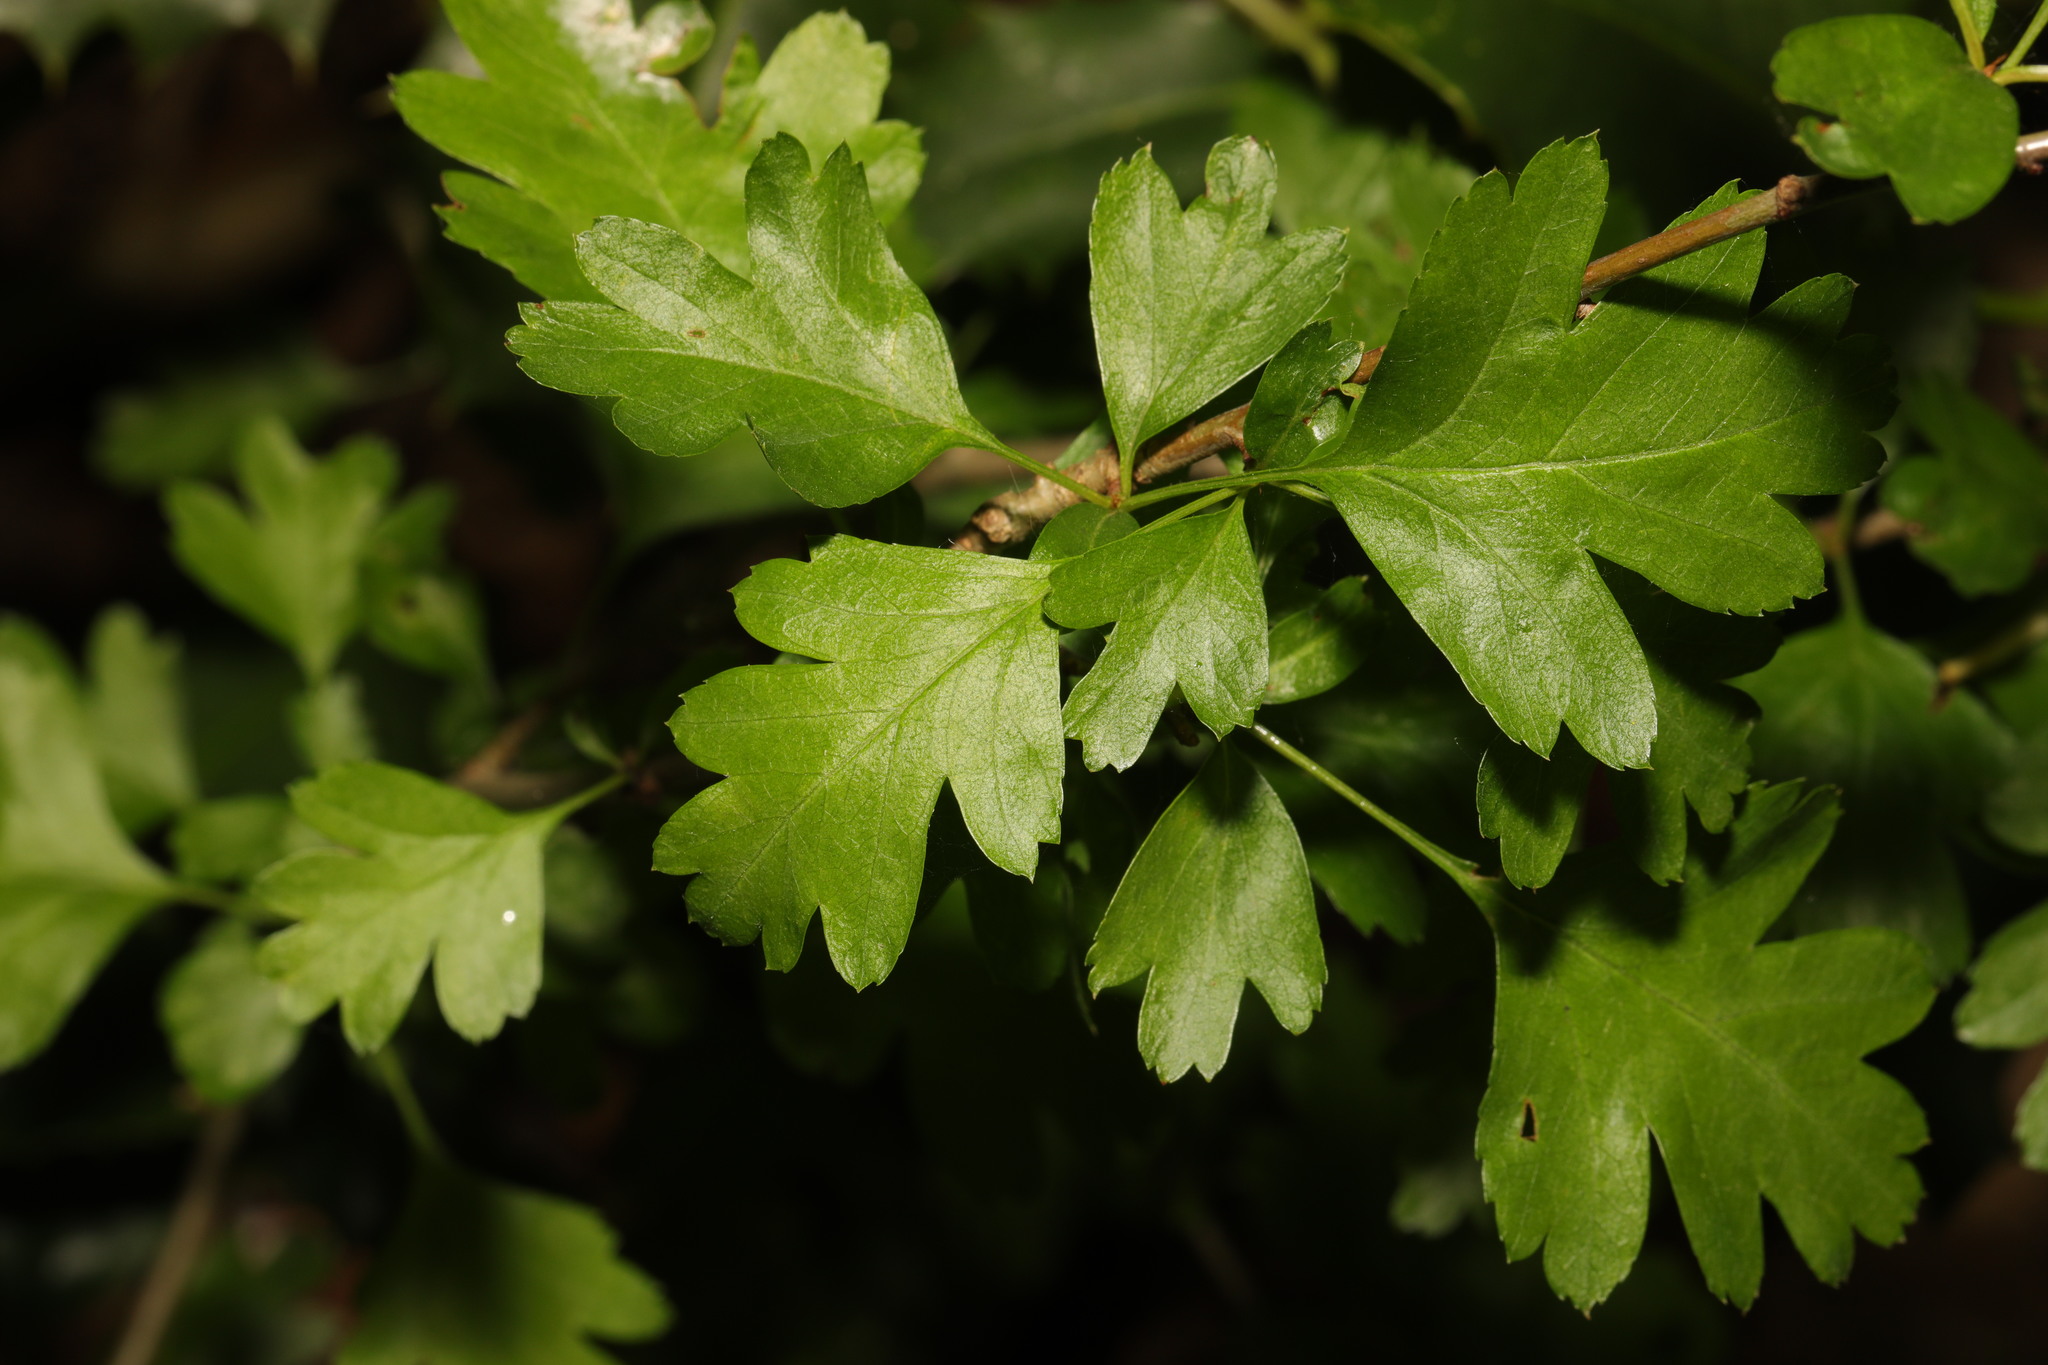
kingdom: Plantae
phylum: Tracheophyta
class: Magnoliopsida
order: Rosales
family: Rosaceae
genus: Crataegus
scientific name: Crataegus monogyna
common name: Hawthorn
